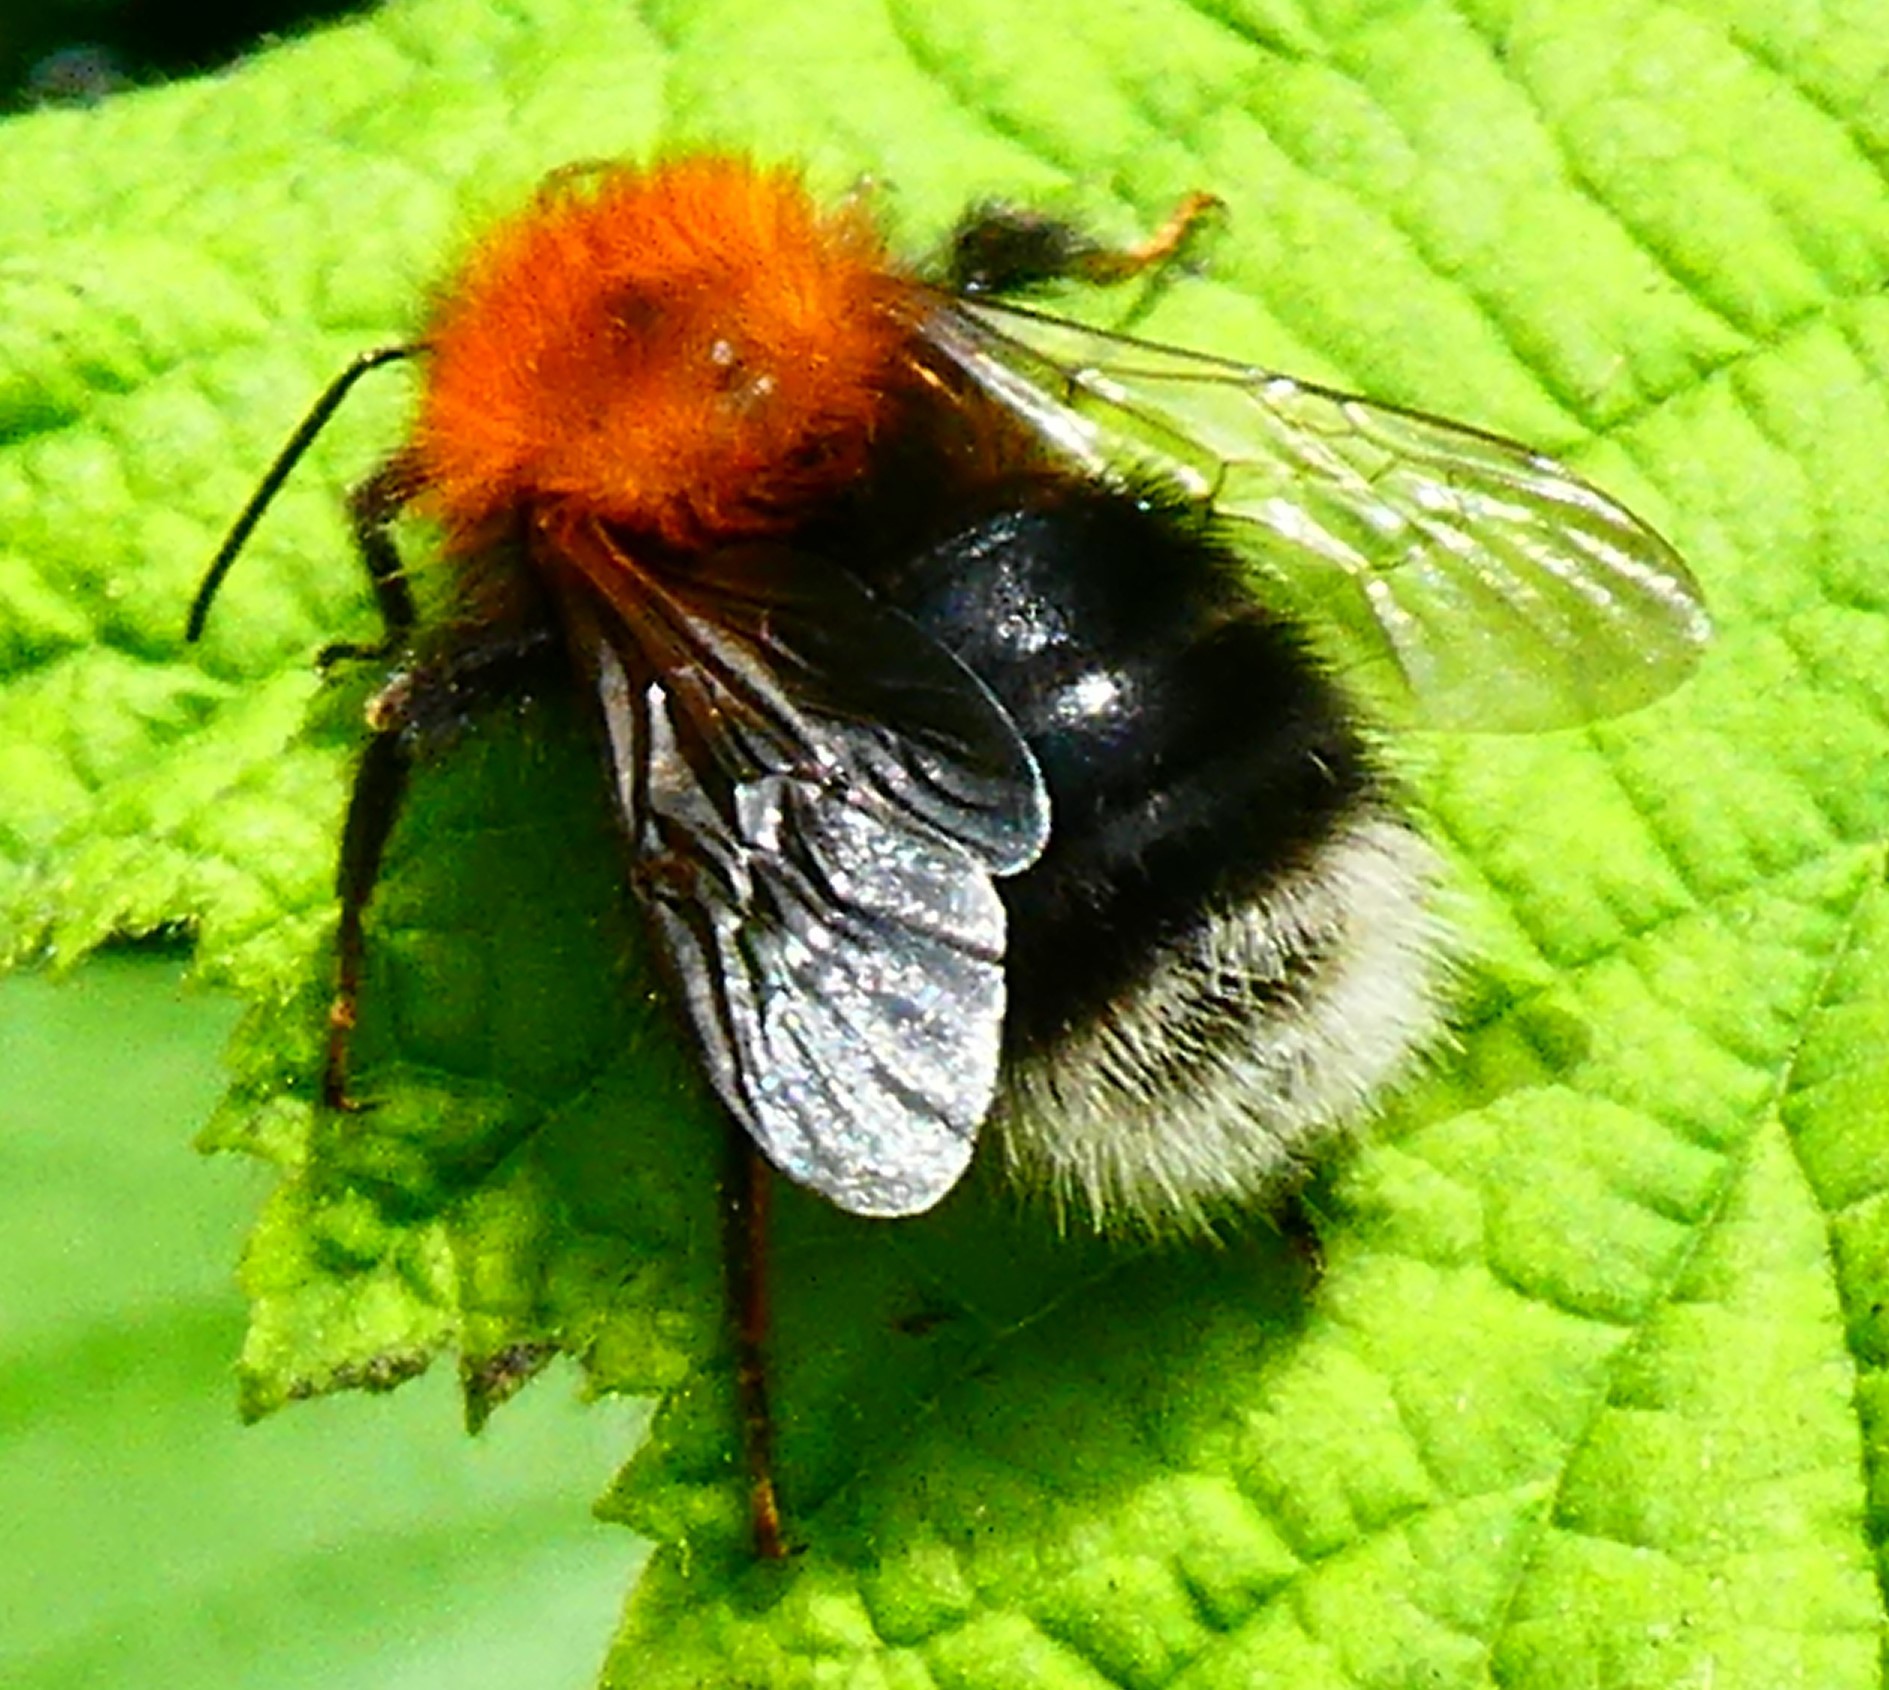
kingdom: Animalia
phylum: Arthropoda
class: Insecta
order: Hymenoptera
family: Apidae
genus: Bombus
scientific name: Bombus hypnorum
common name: New garden bumblebee
